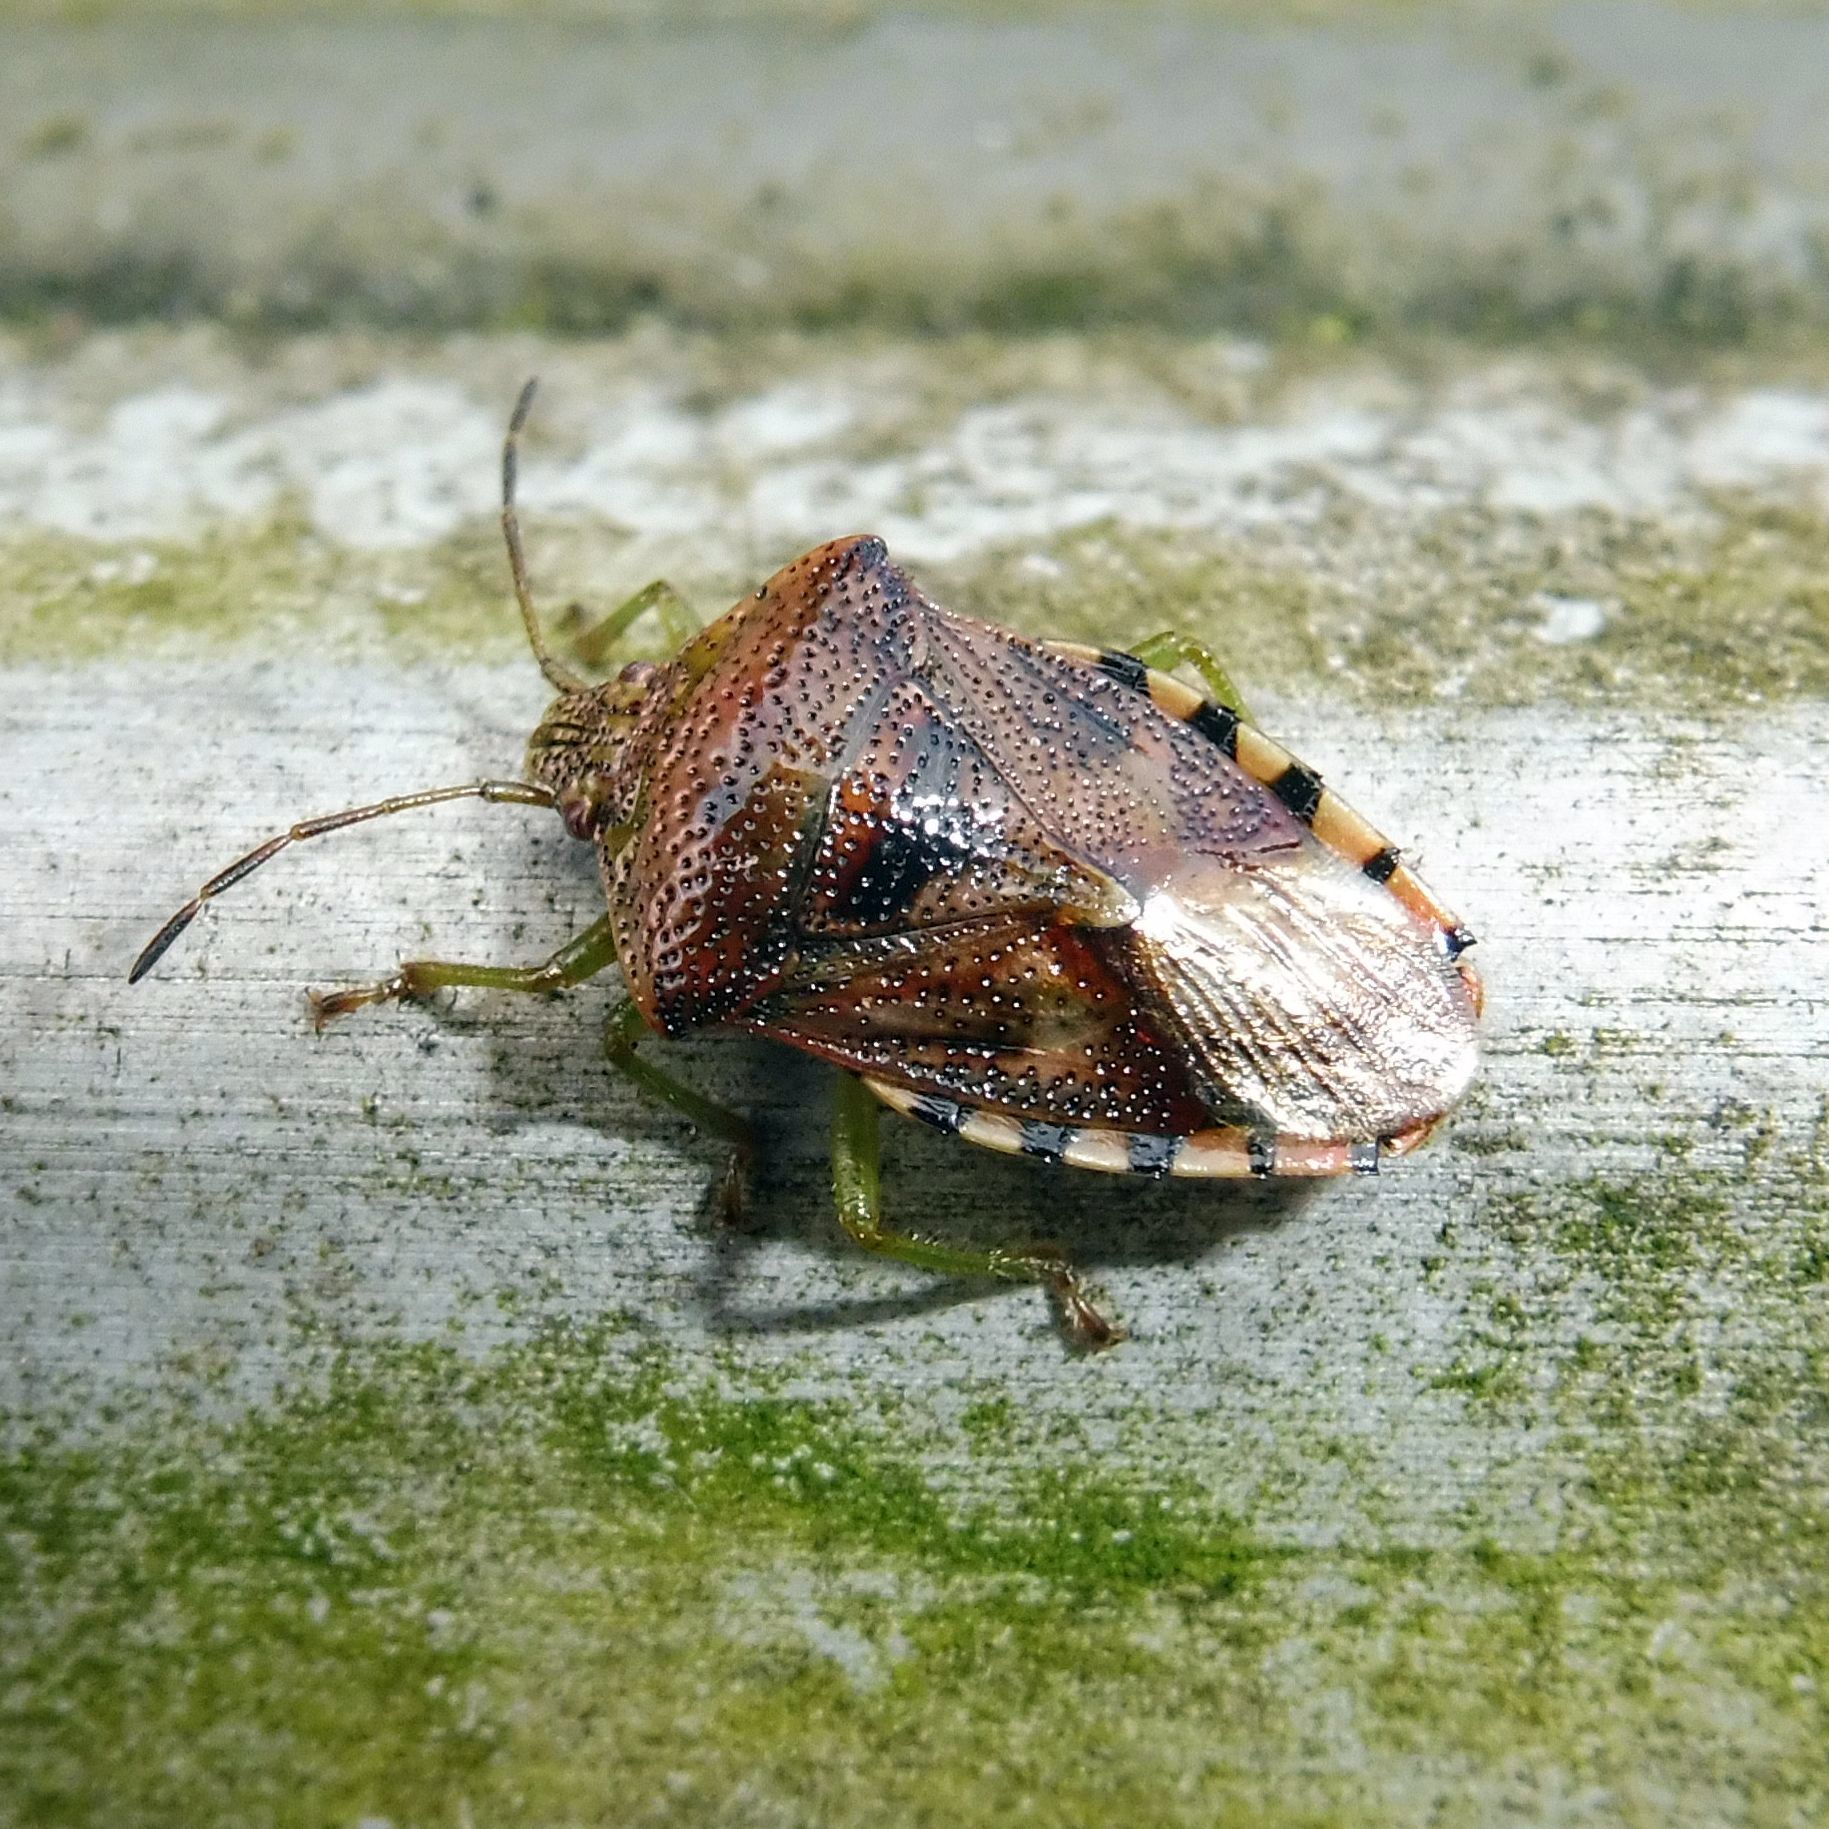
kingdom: Animalia
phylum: Arthropoda
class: Insecta
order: Hemiptera
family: Acanthosomatidae
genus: Elasmucha
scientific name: Elasmucha grisea
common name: Parent bug
